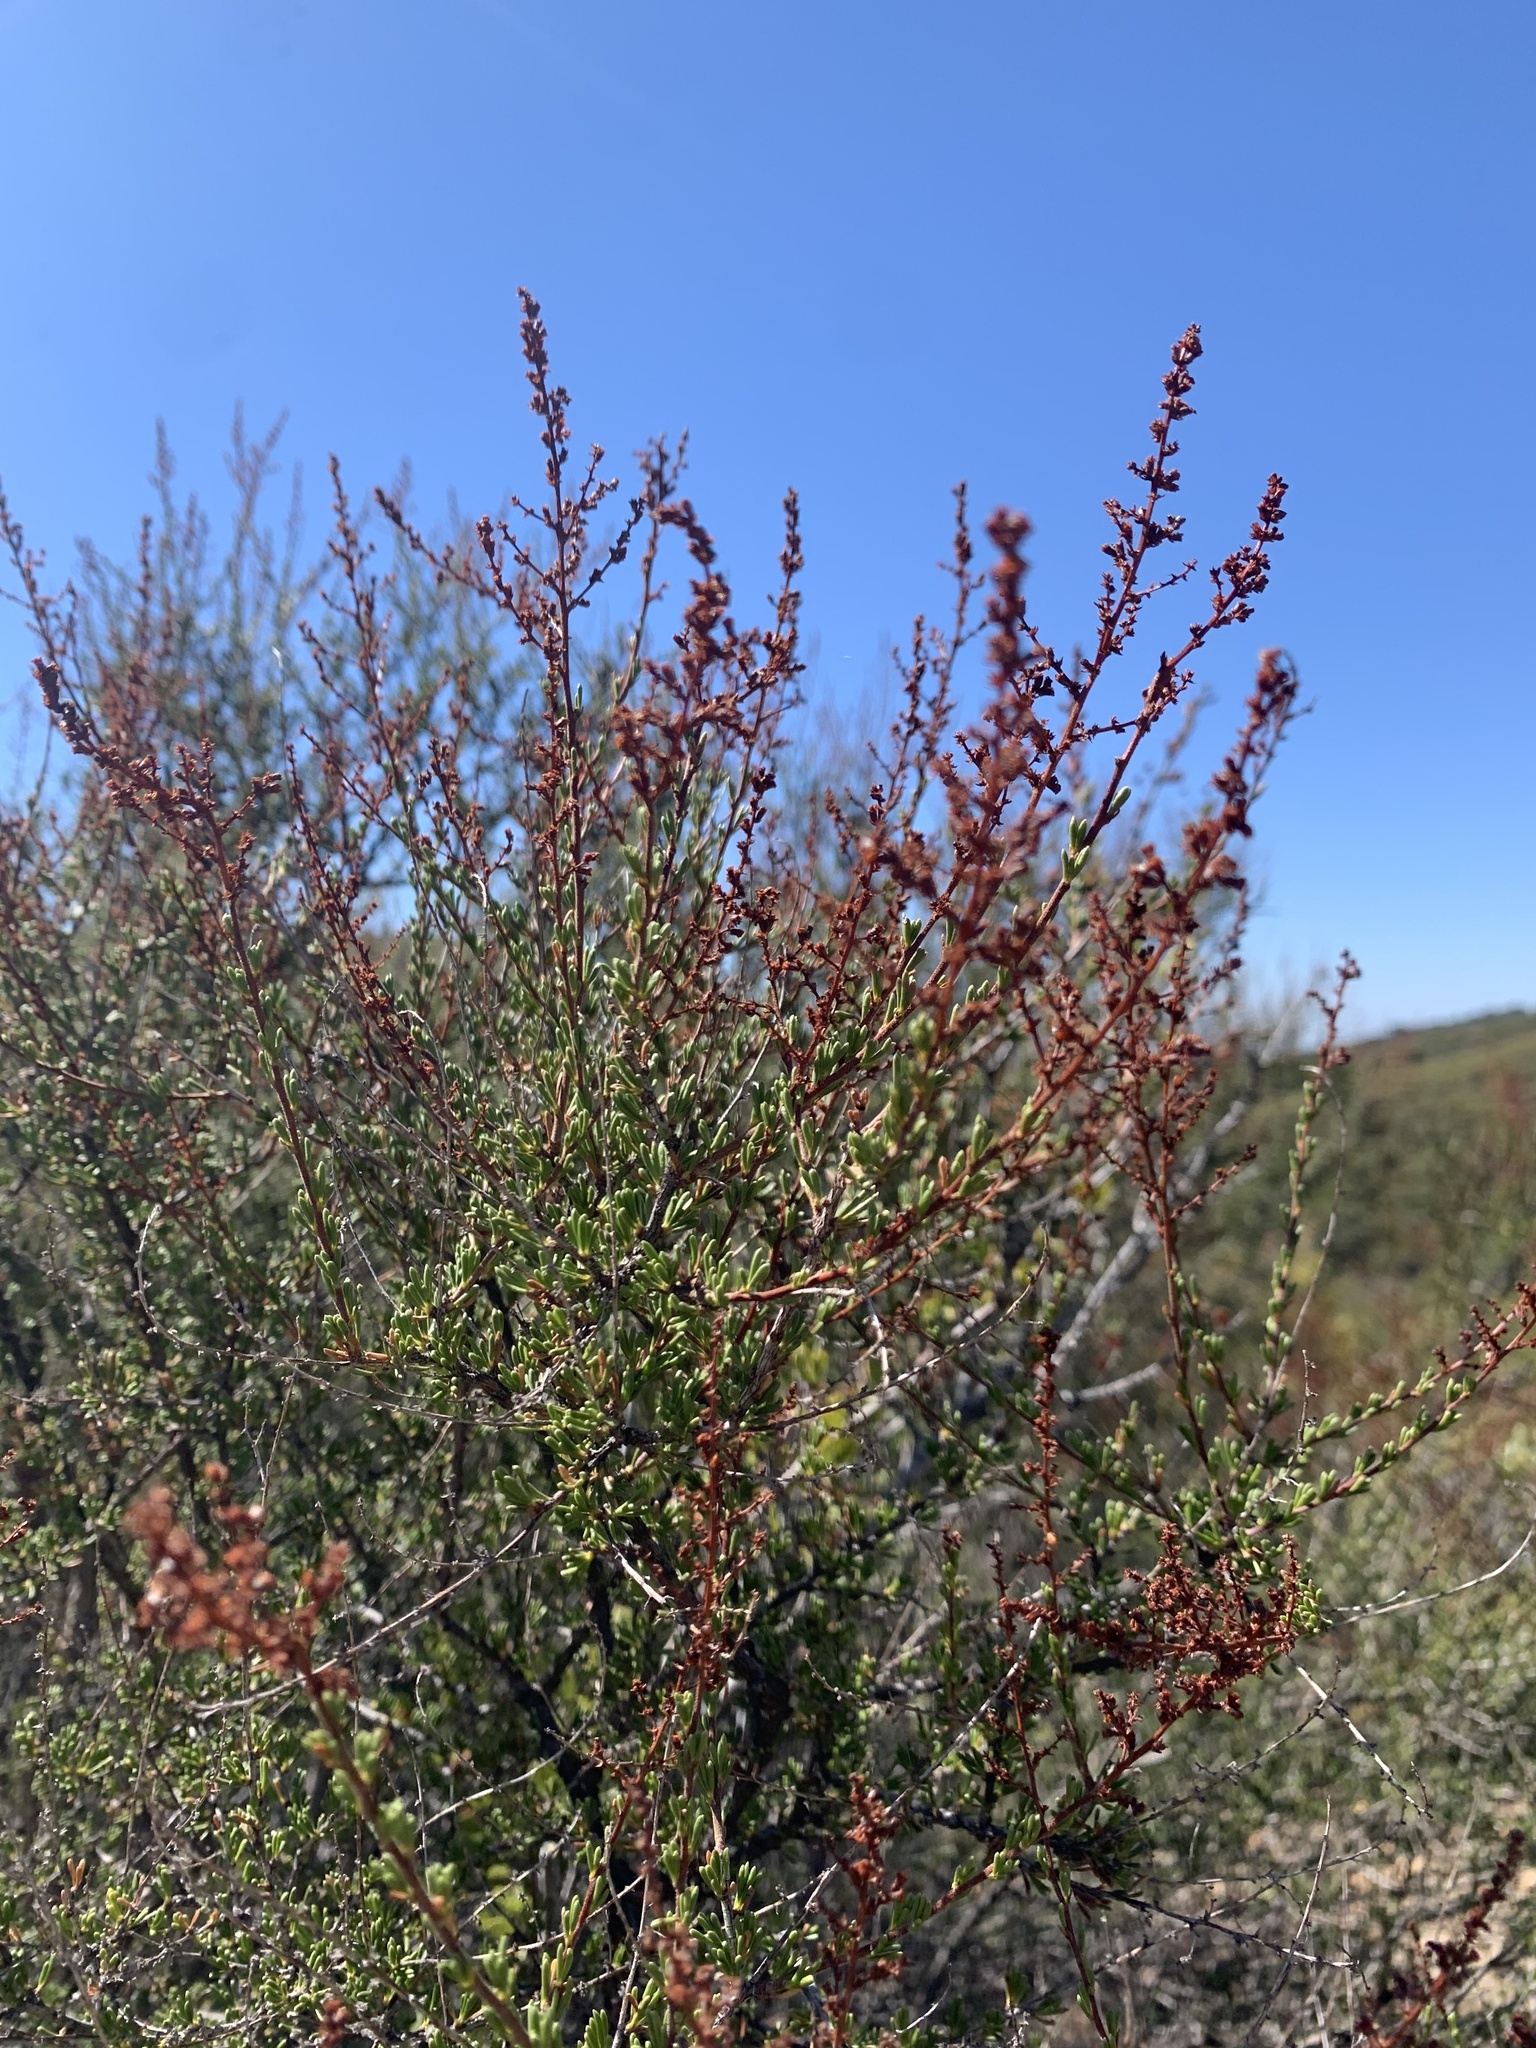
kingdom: Plantae
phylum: Tracheophyta
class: Magnoliopsida
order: Rosales
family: Rosaceae
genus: Adenostoma
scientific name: Adenostoma fasciculatum
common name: Chamise
